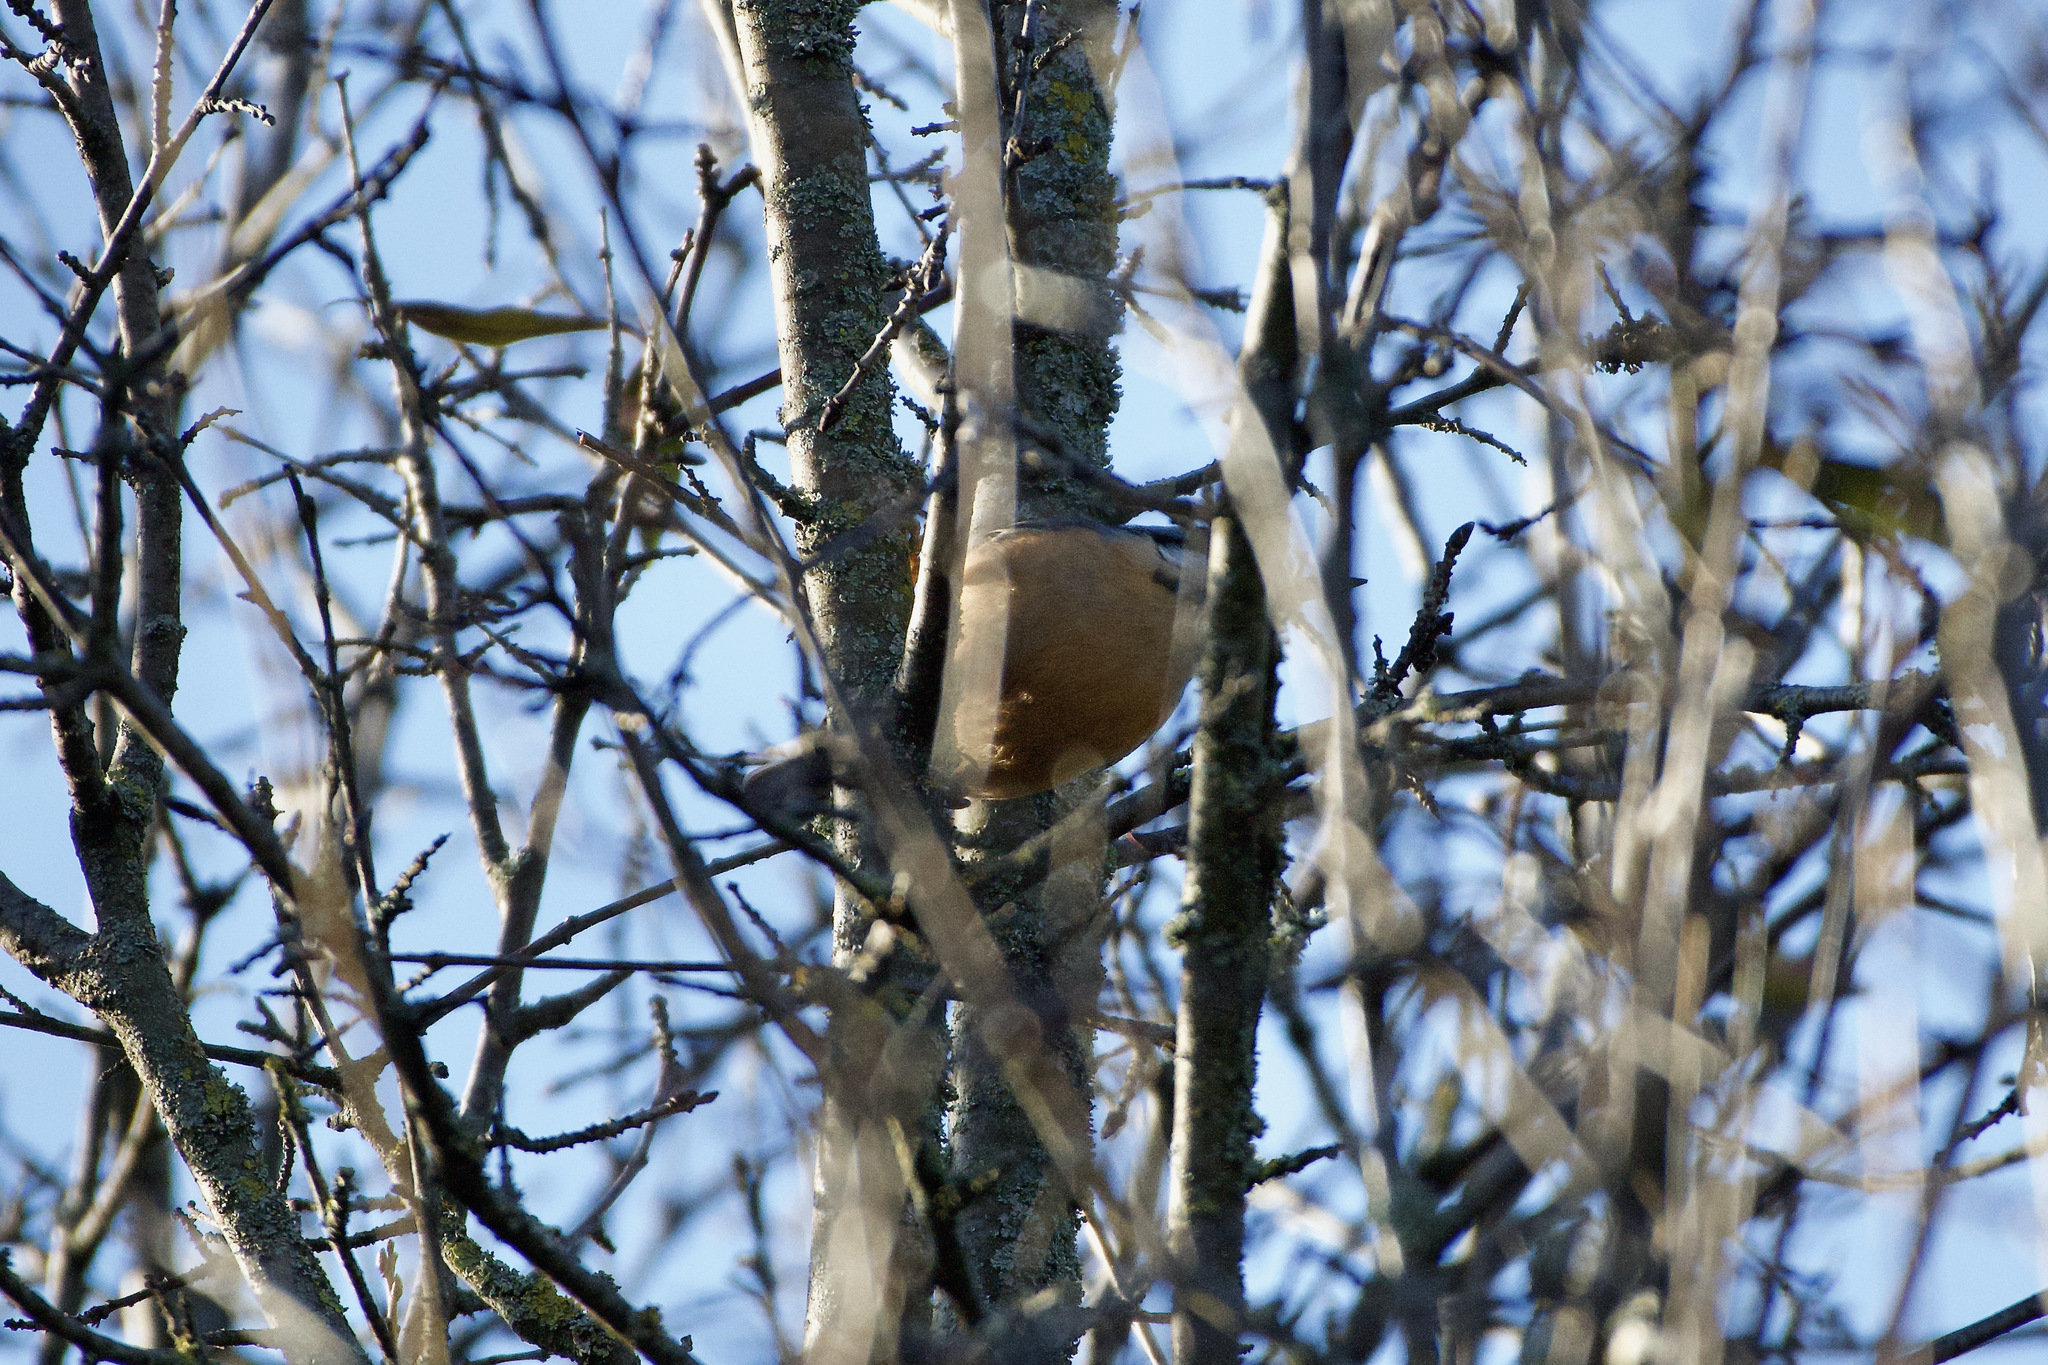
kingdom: Animalia
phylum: Chordata
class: Aves
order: Passeriformes
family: Sittidae
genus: Sitta
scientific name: Sitta europaea
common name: Eurasian nuthatch
